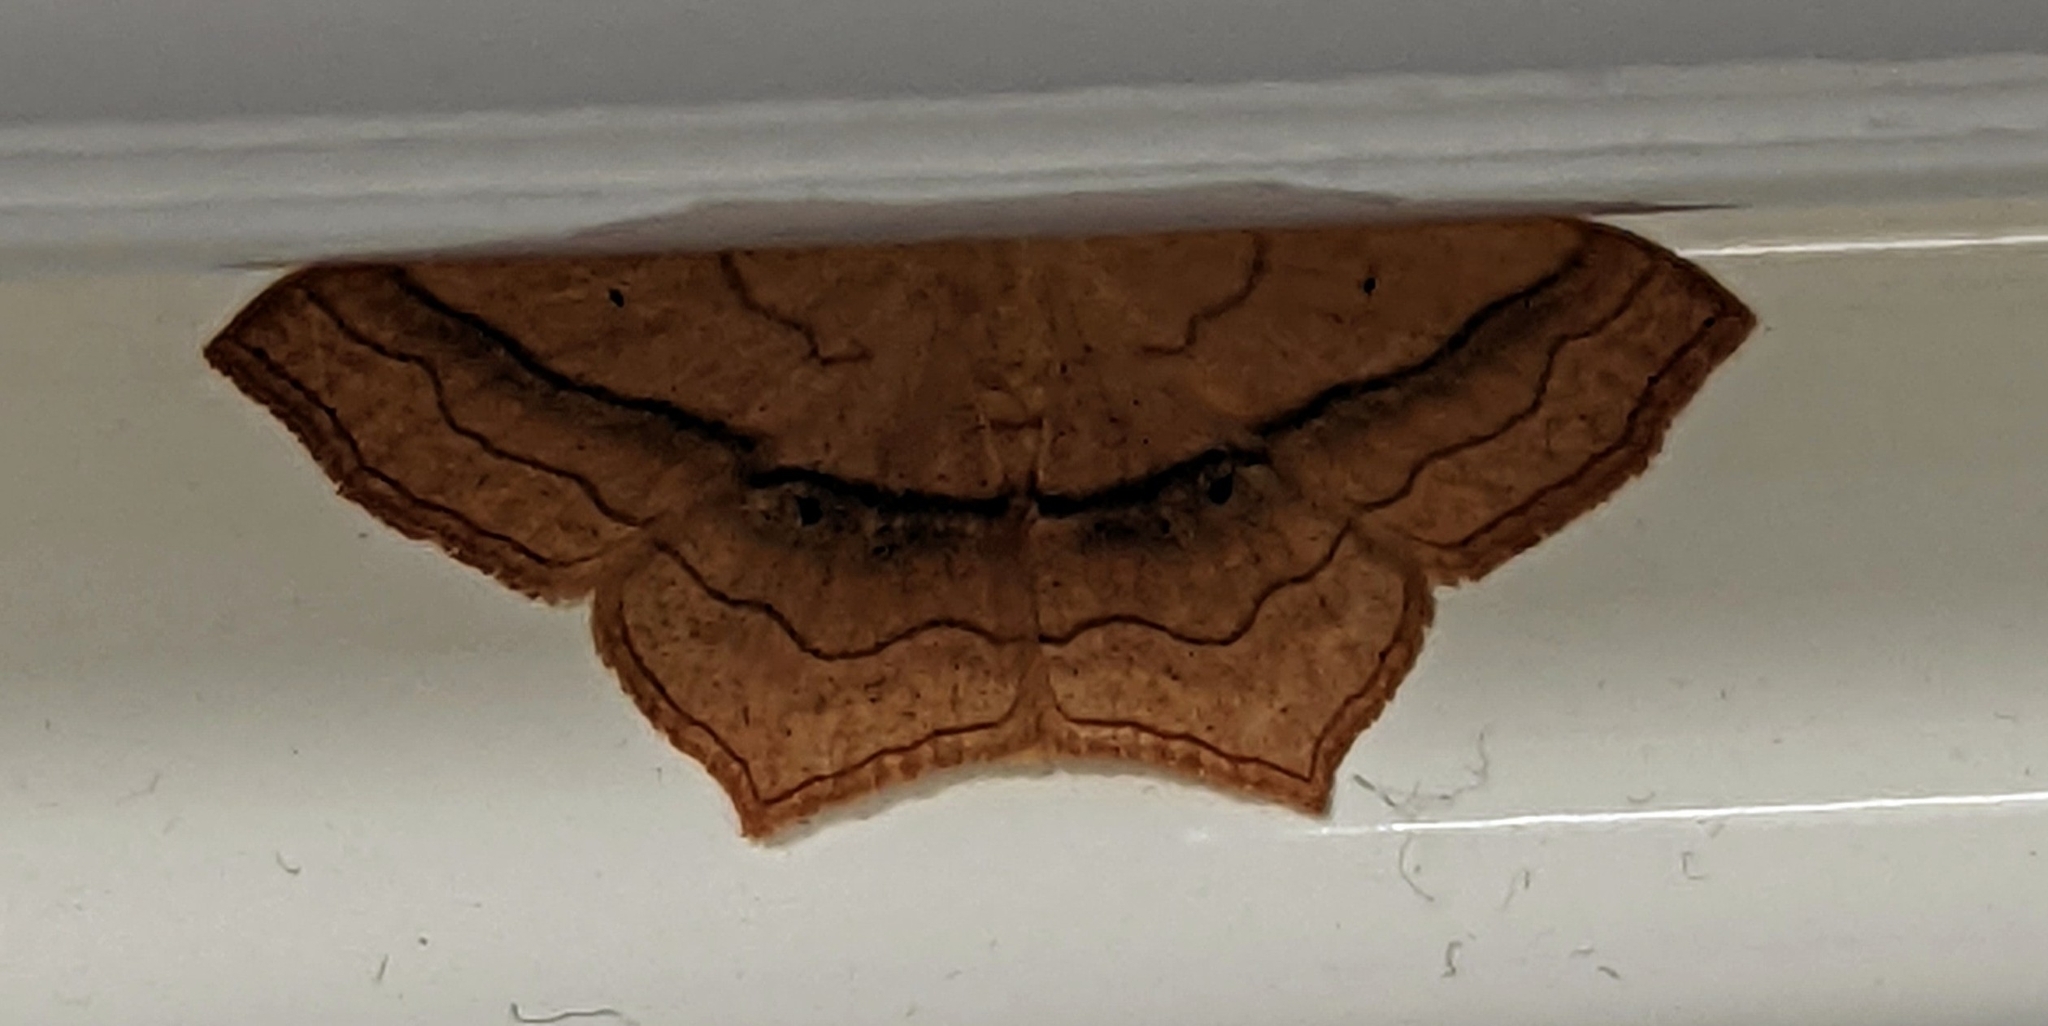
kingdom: Animalia
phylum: Arthropoda
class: Insecta
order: Lepidoptera
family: Geometridae
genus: Scopula
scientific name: Scopula imitaria
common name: Small blood-vein
